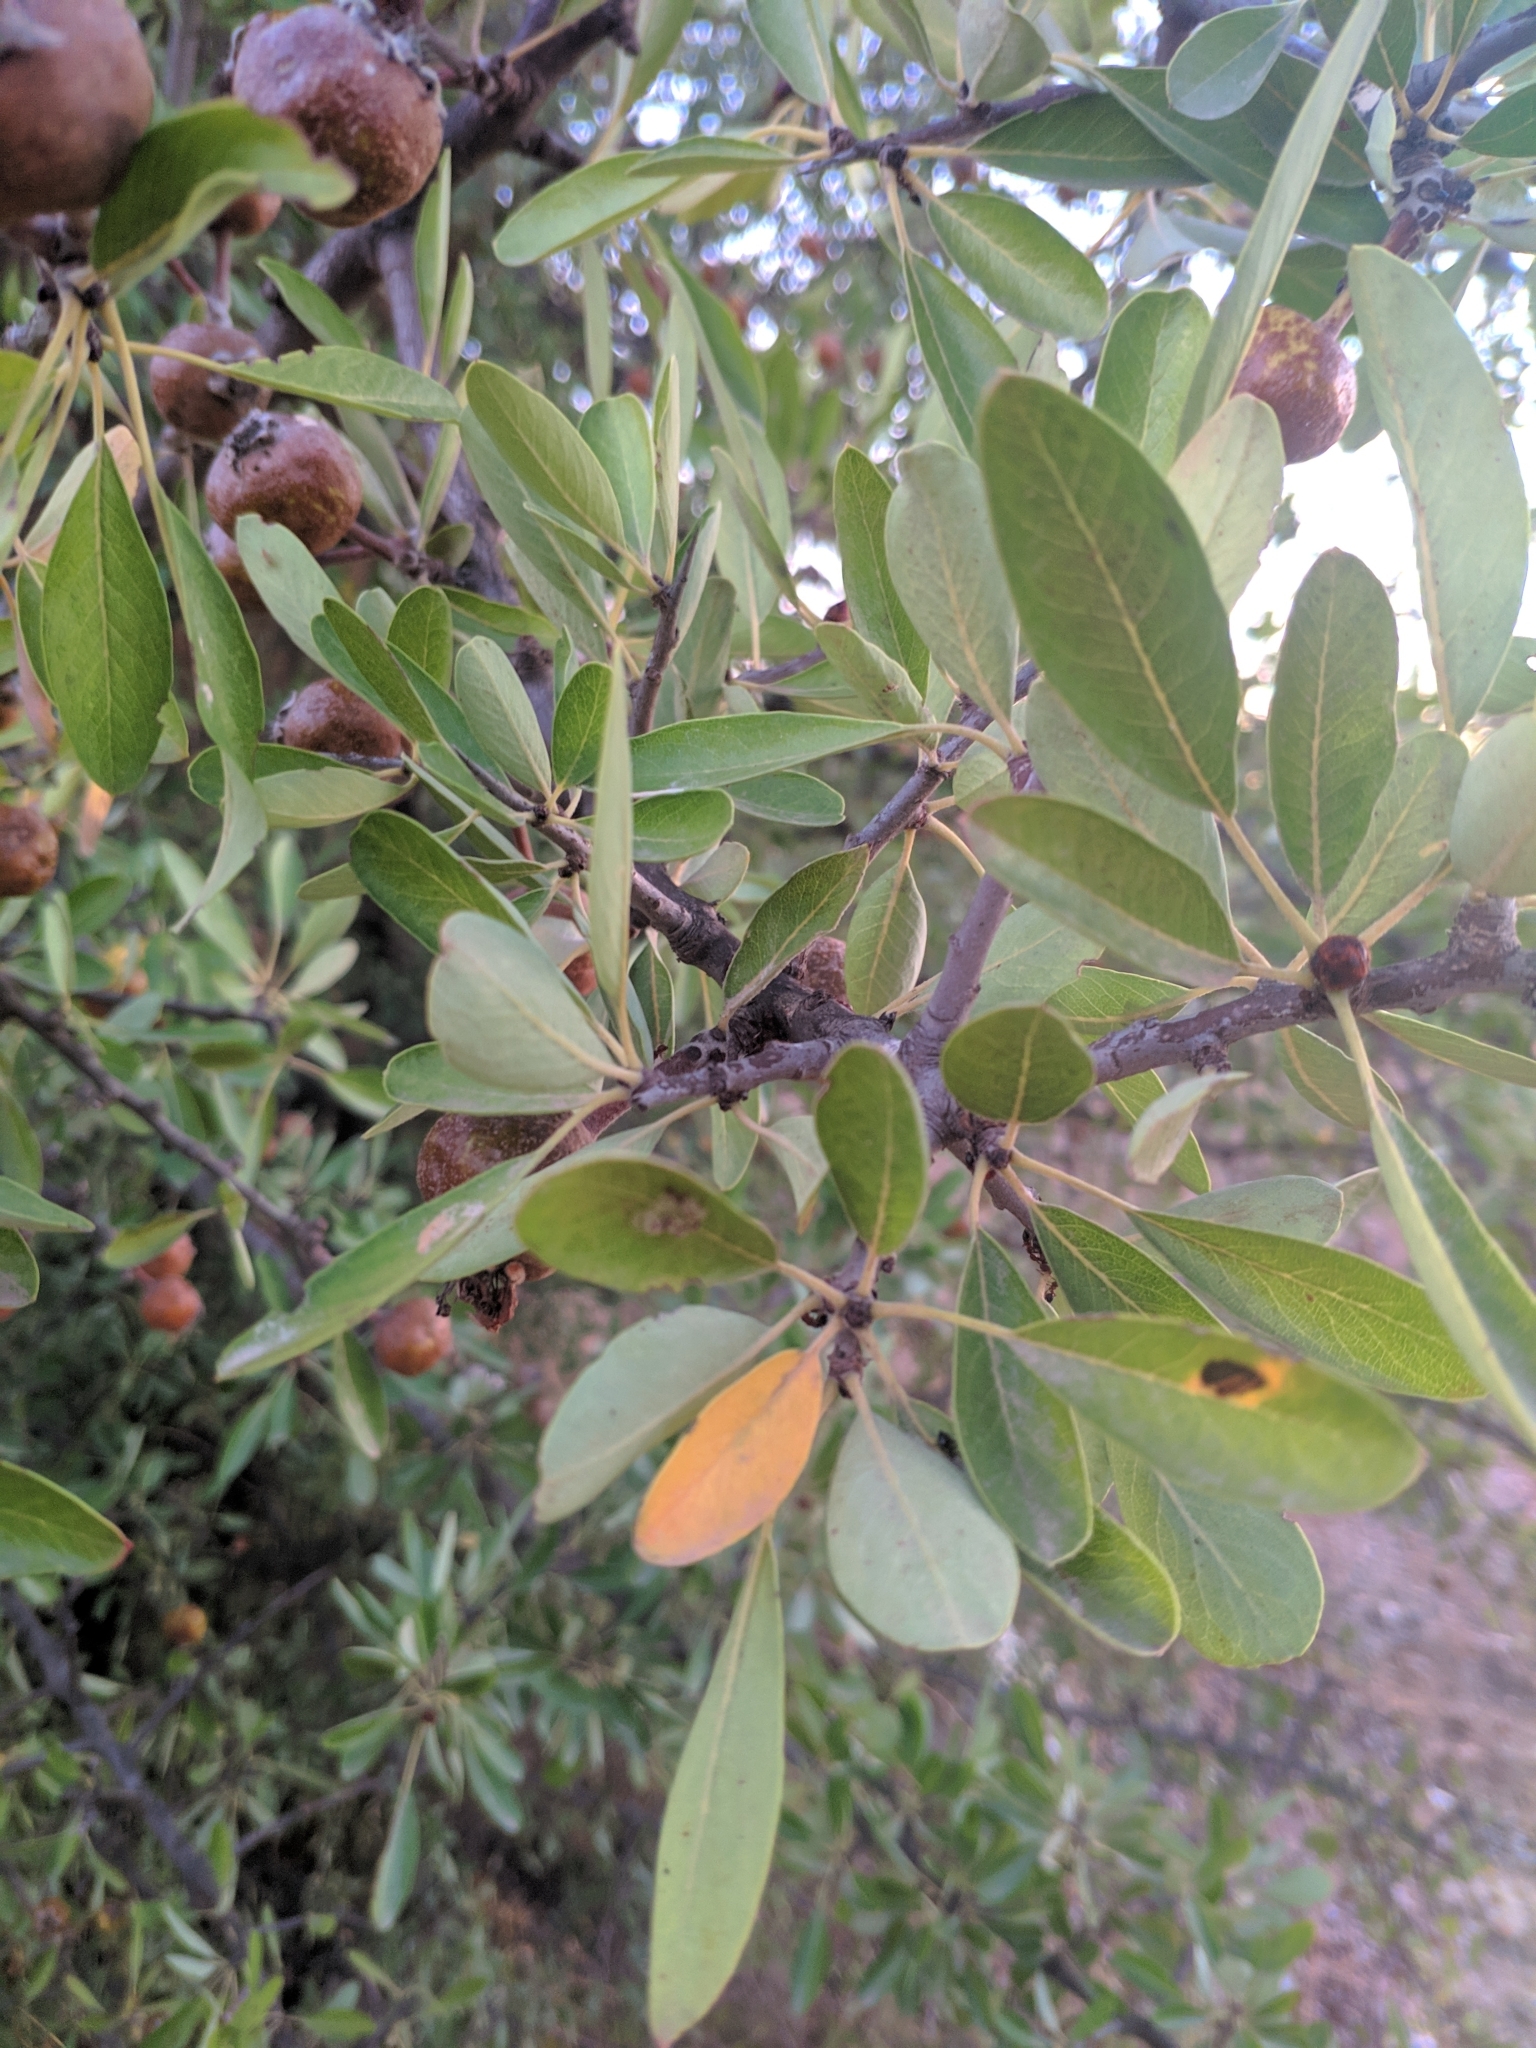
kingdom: Plantae
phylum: Tracheophyta
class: Magnoliopsida
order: Rosales
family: Rosaceae
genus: Pyrus
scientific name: Pyrus spinosa
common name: Almond-leaf pear
